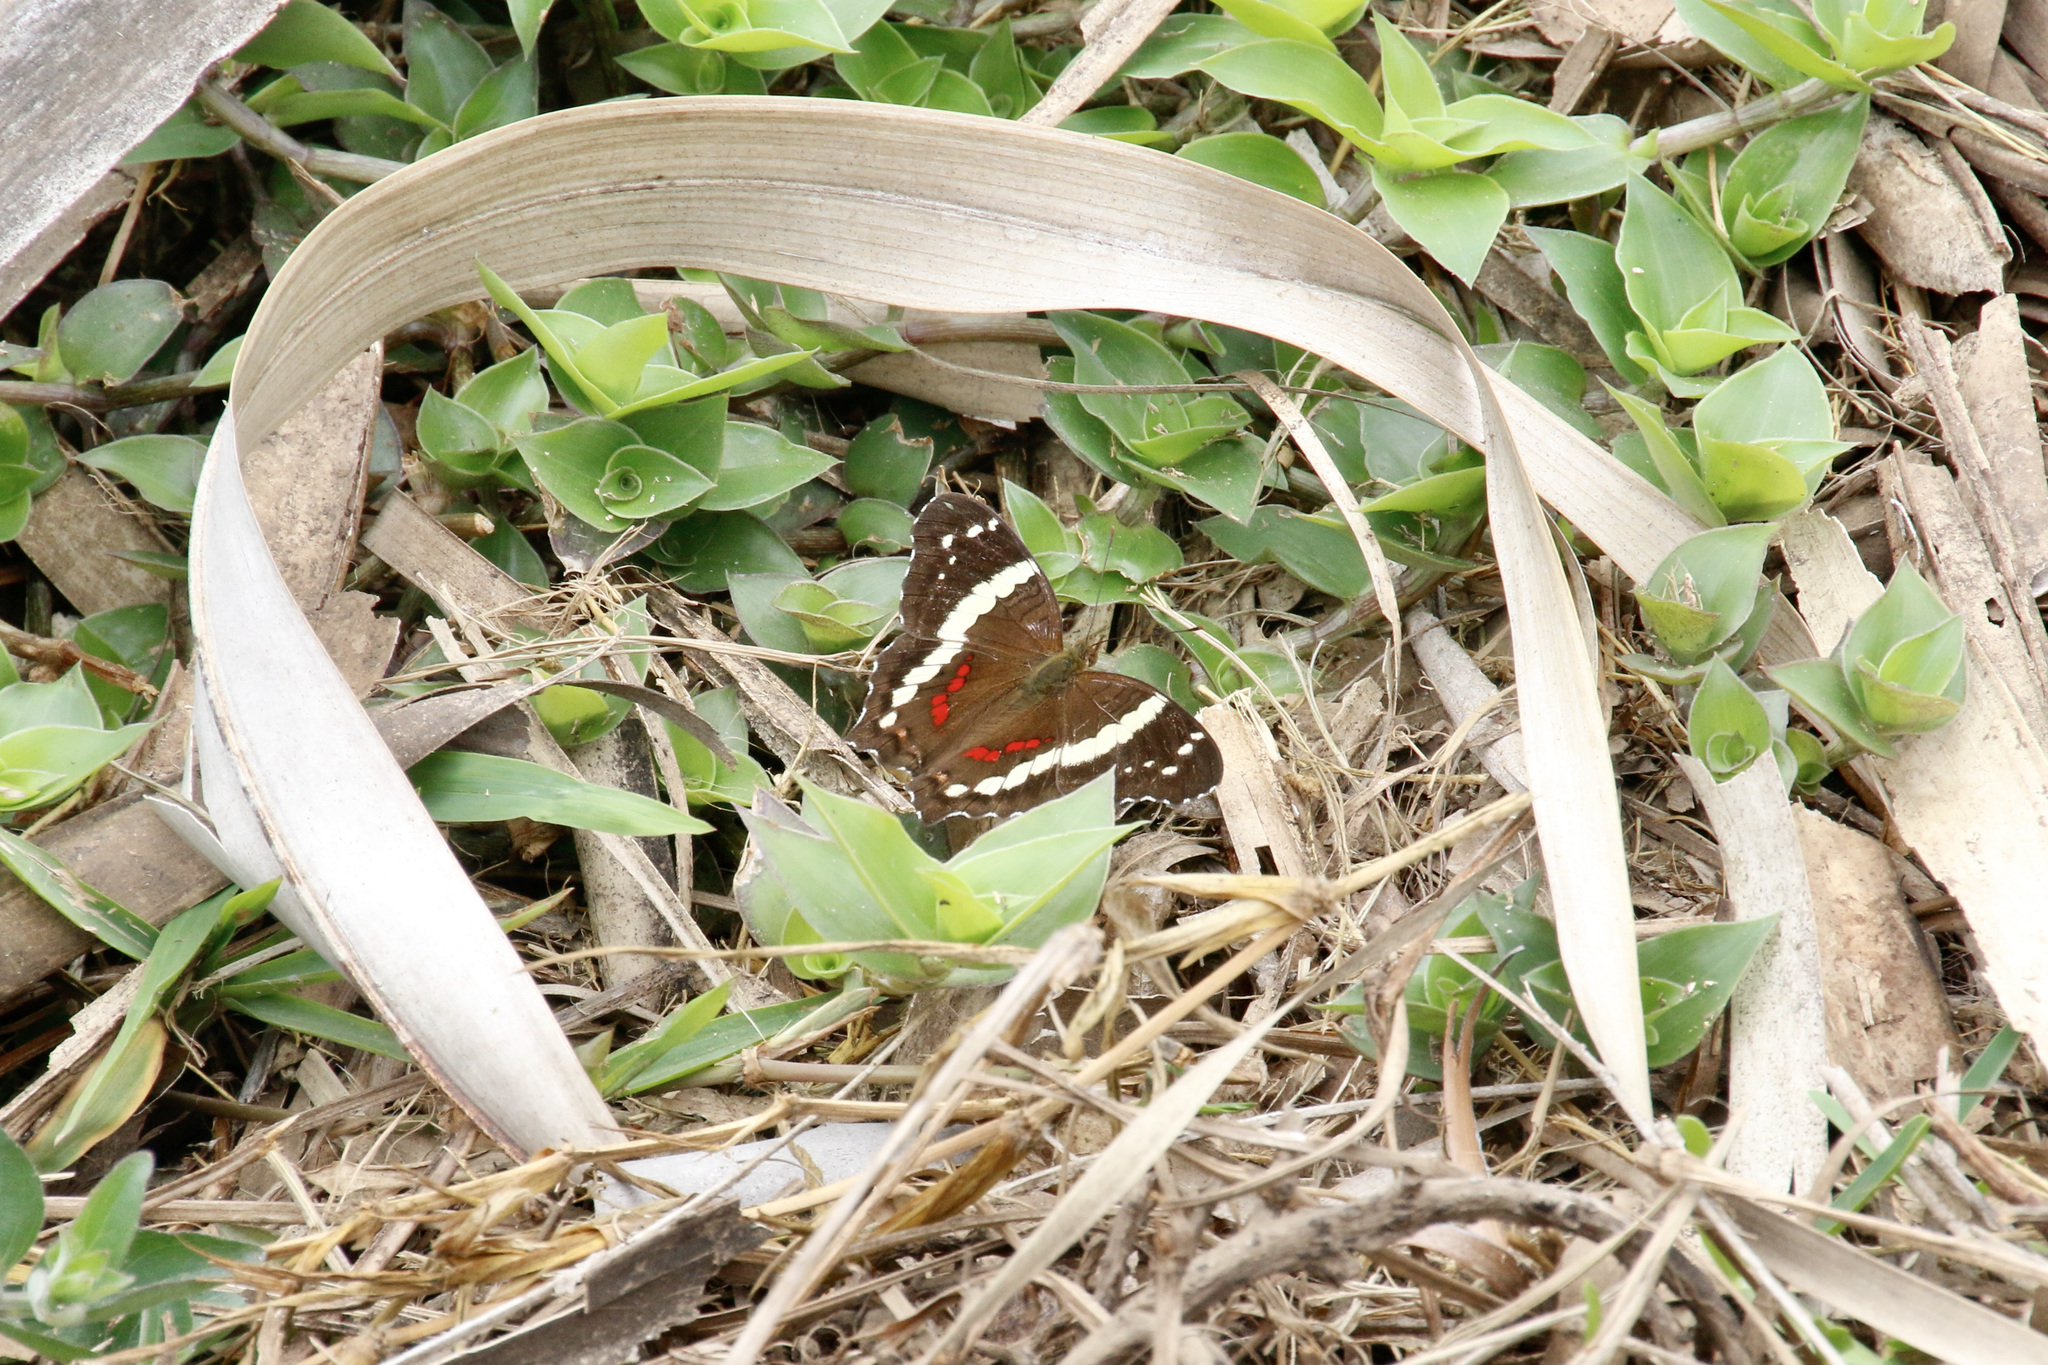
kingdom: Animalia
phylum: Arthropoda
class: Insecta
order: Lepidoptera
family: Nymphalidae
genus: Anartia
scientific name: Anartia fatima
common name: Banded peacock
